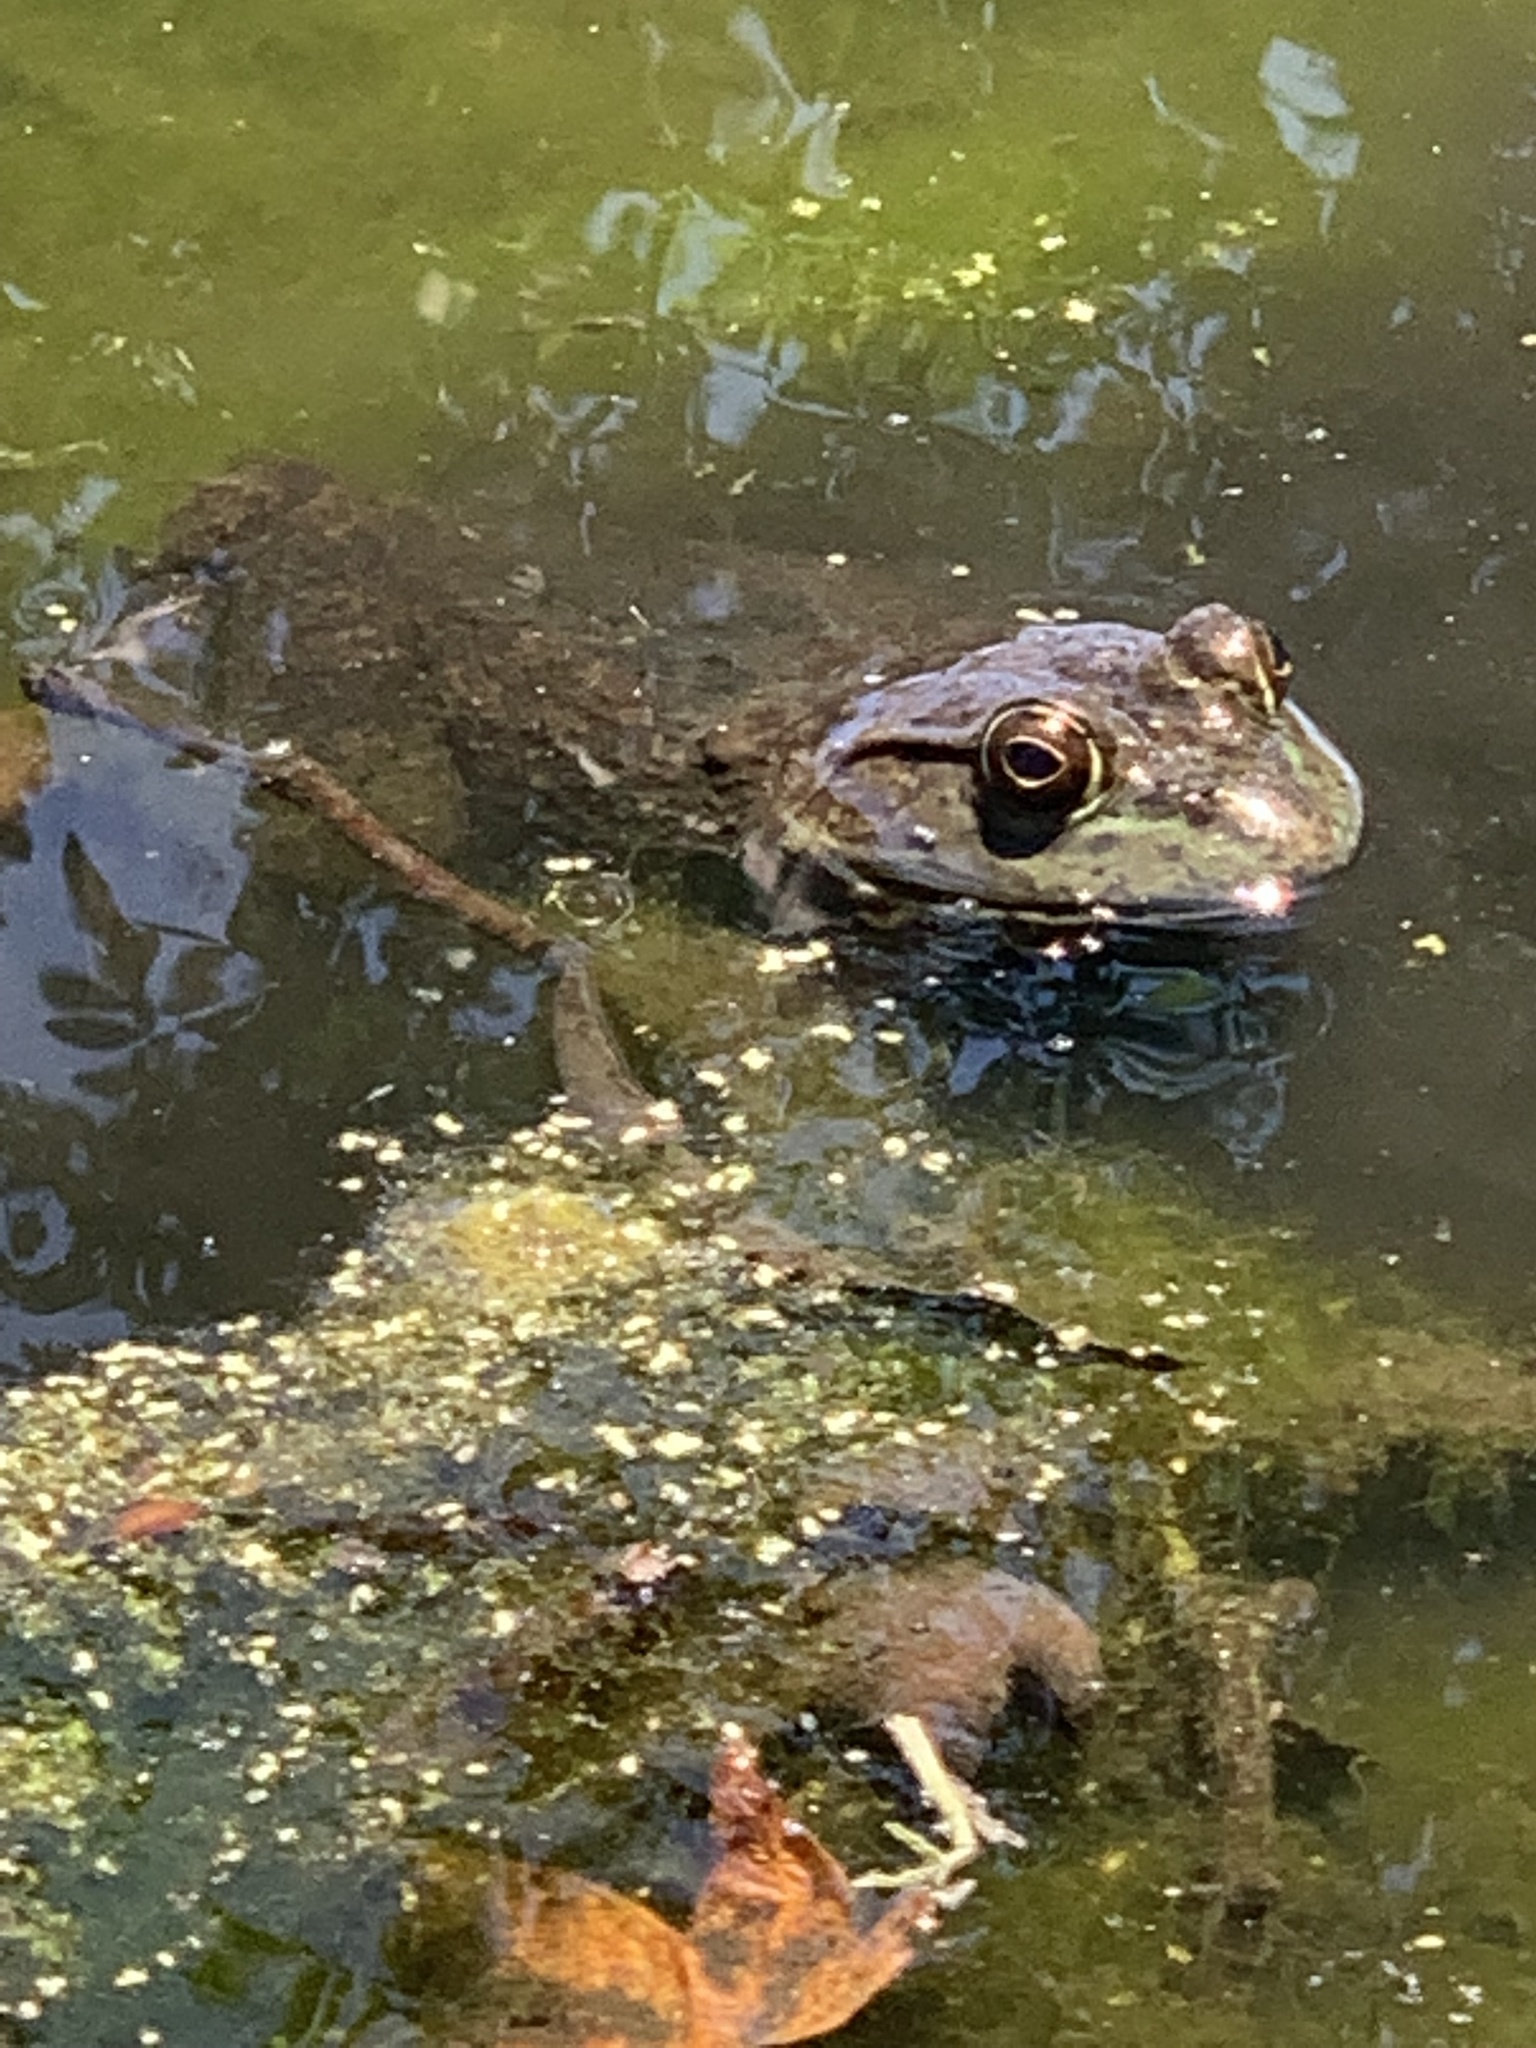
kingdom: Animalia
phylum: Chordata
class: Amphibia
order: Anura
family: Ranidae
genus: Lithobates
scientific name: Lithobates catesbeianus
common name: American bullfrog
